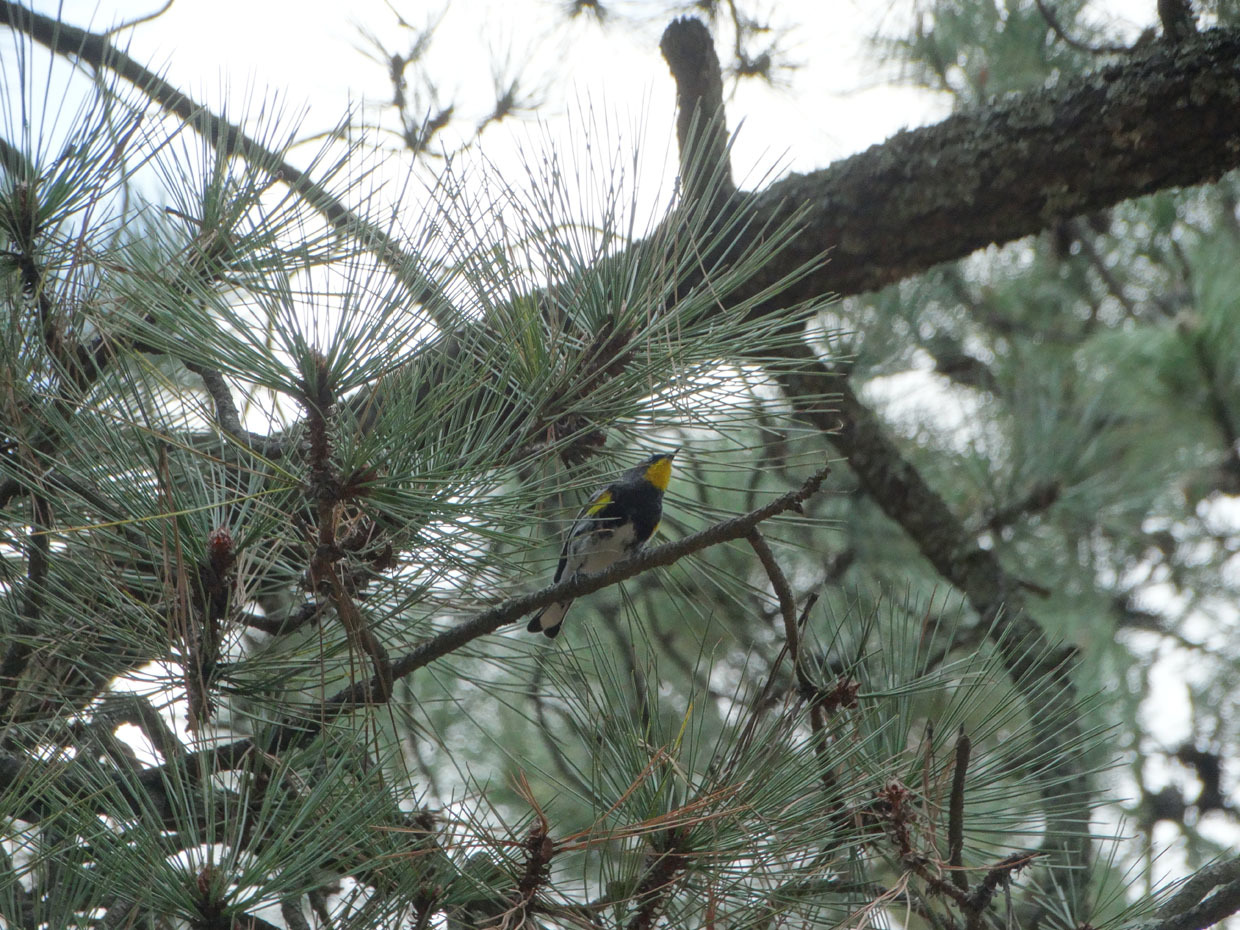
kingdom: Animalia
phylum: Chordata
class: Aves
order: Passeriformes
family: Parulidae
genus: Setophaga
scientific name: Setophaga auduboni
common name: Audubon's warbler
